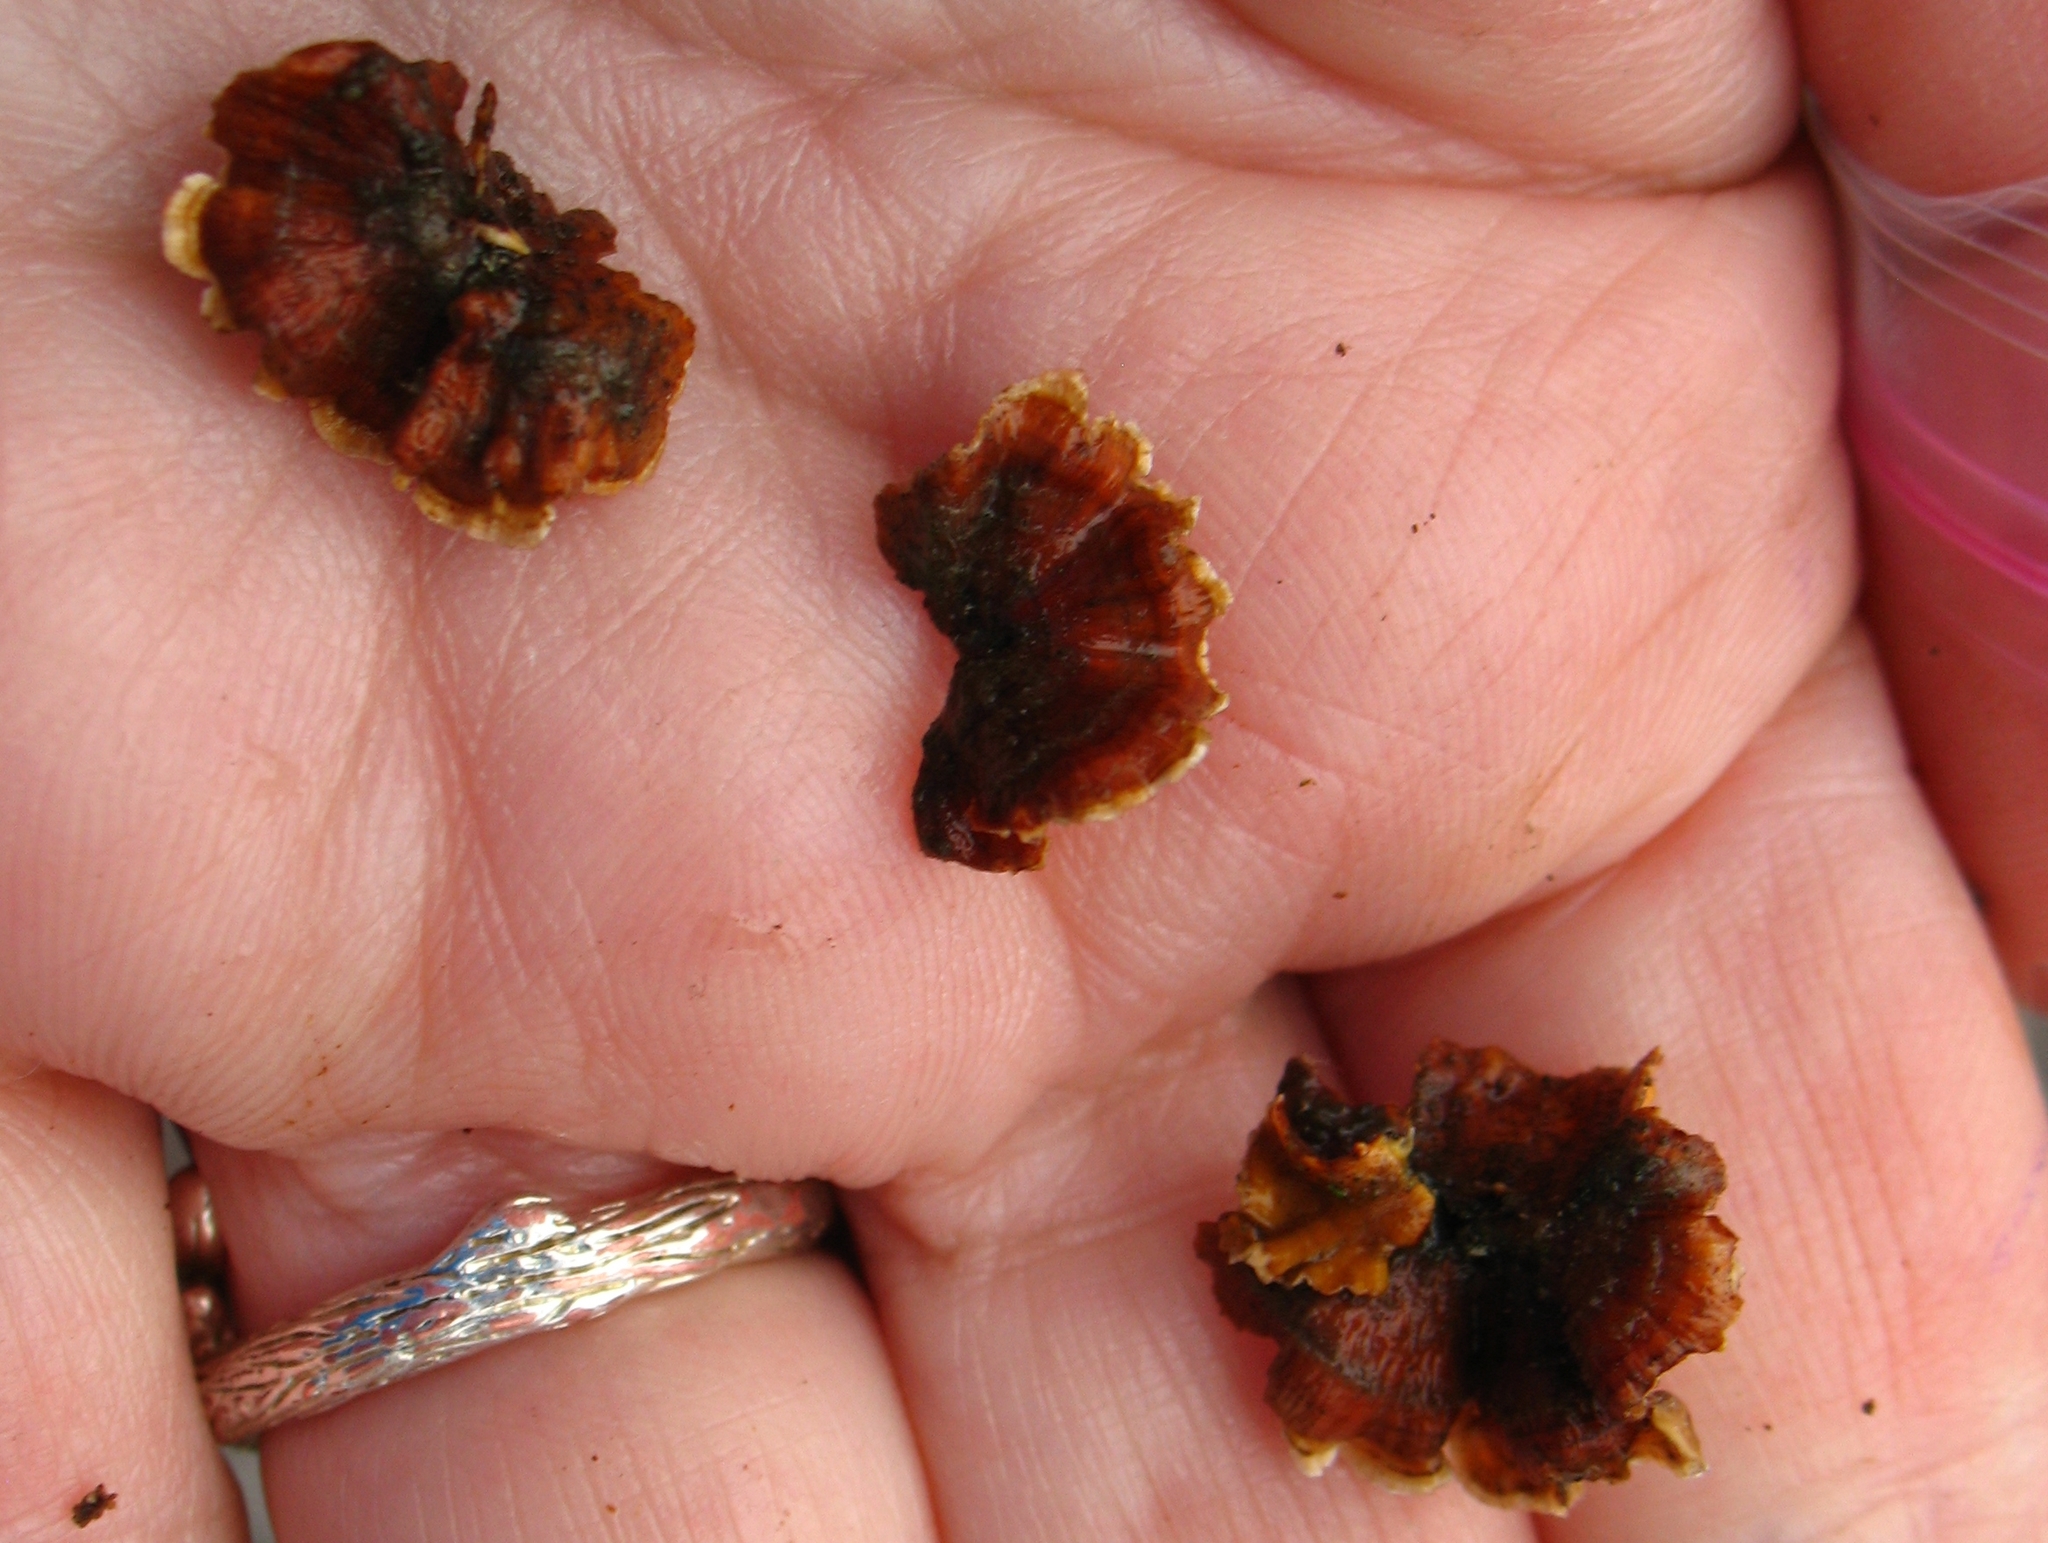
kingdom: Fungi
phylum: Basidiomycota
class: Agaricomycetes
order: Russulales
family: Stereaceae
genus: Stereum
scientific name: Stereum complicatum
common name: Crowded parchment
